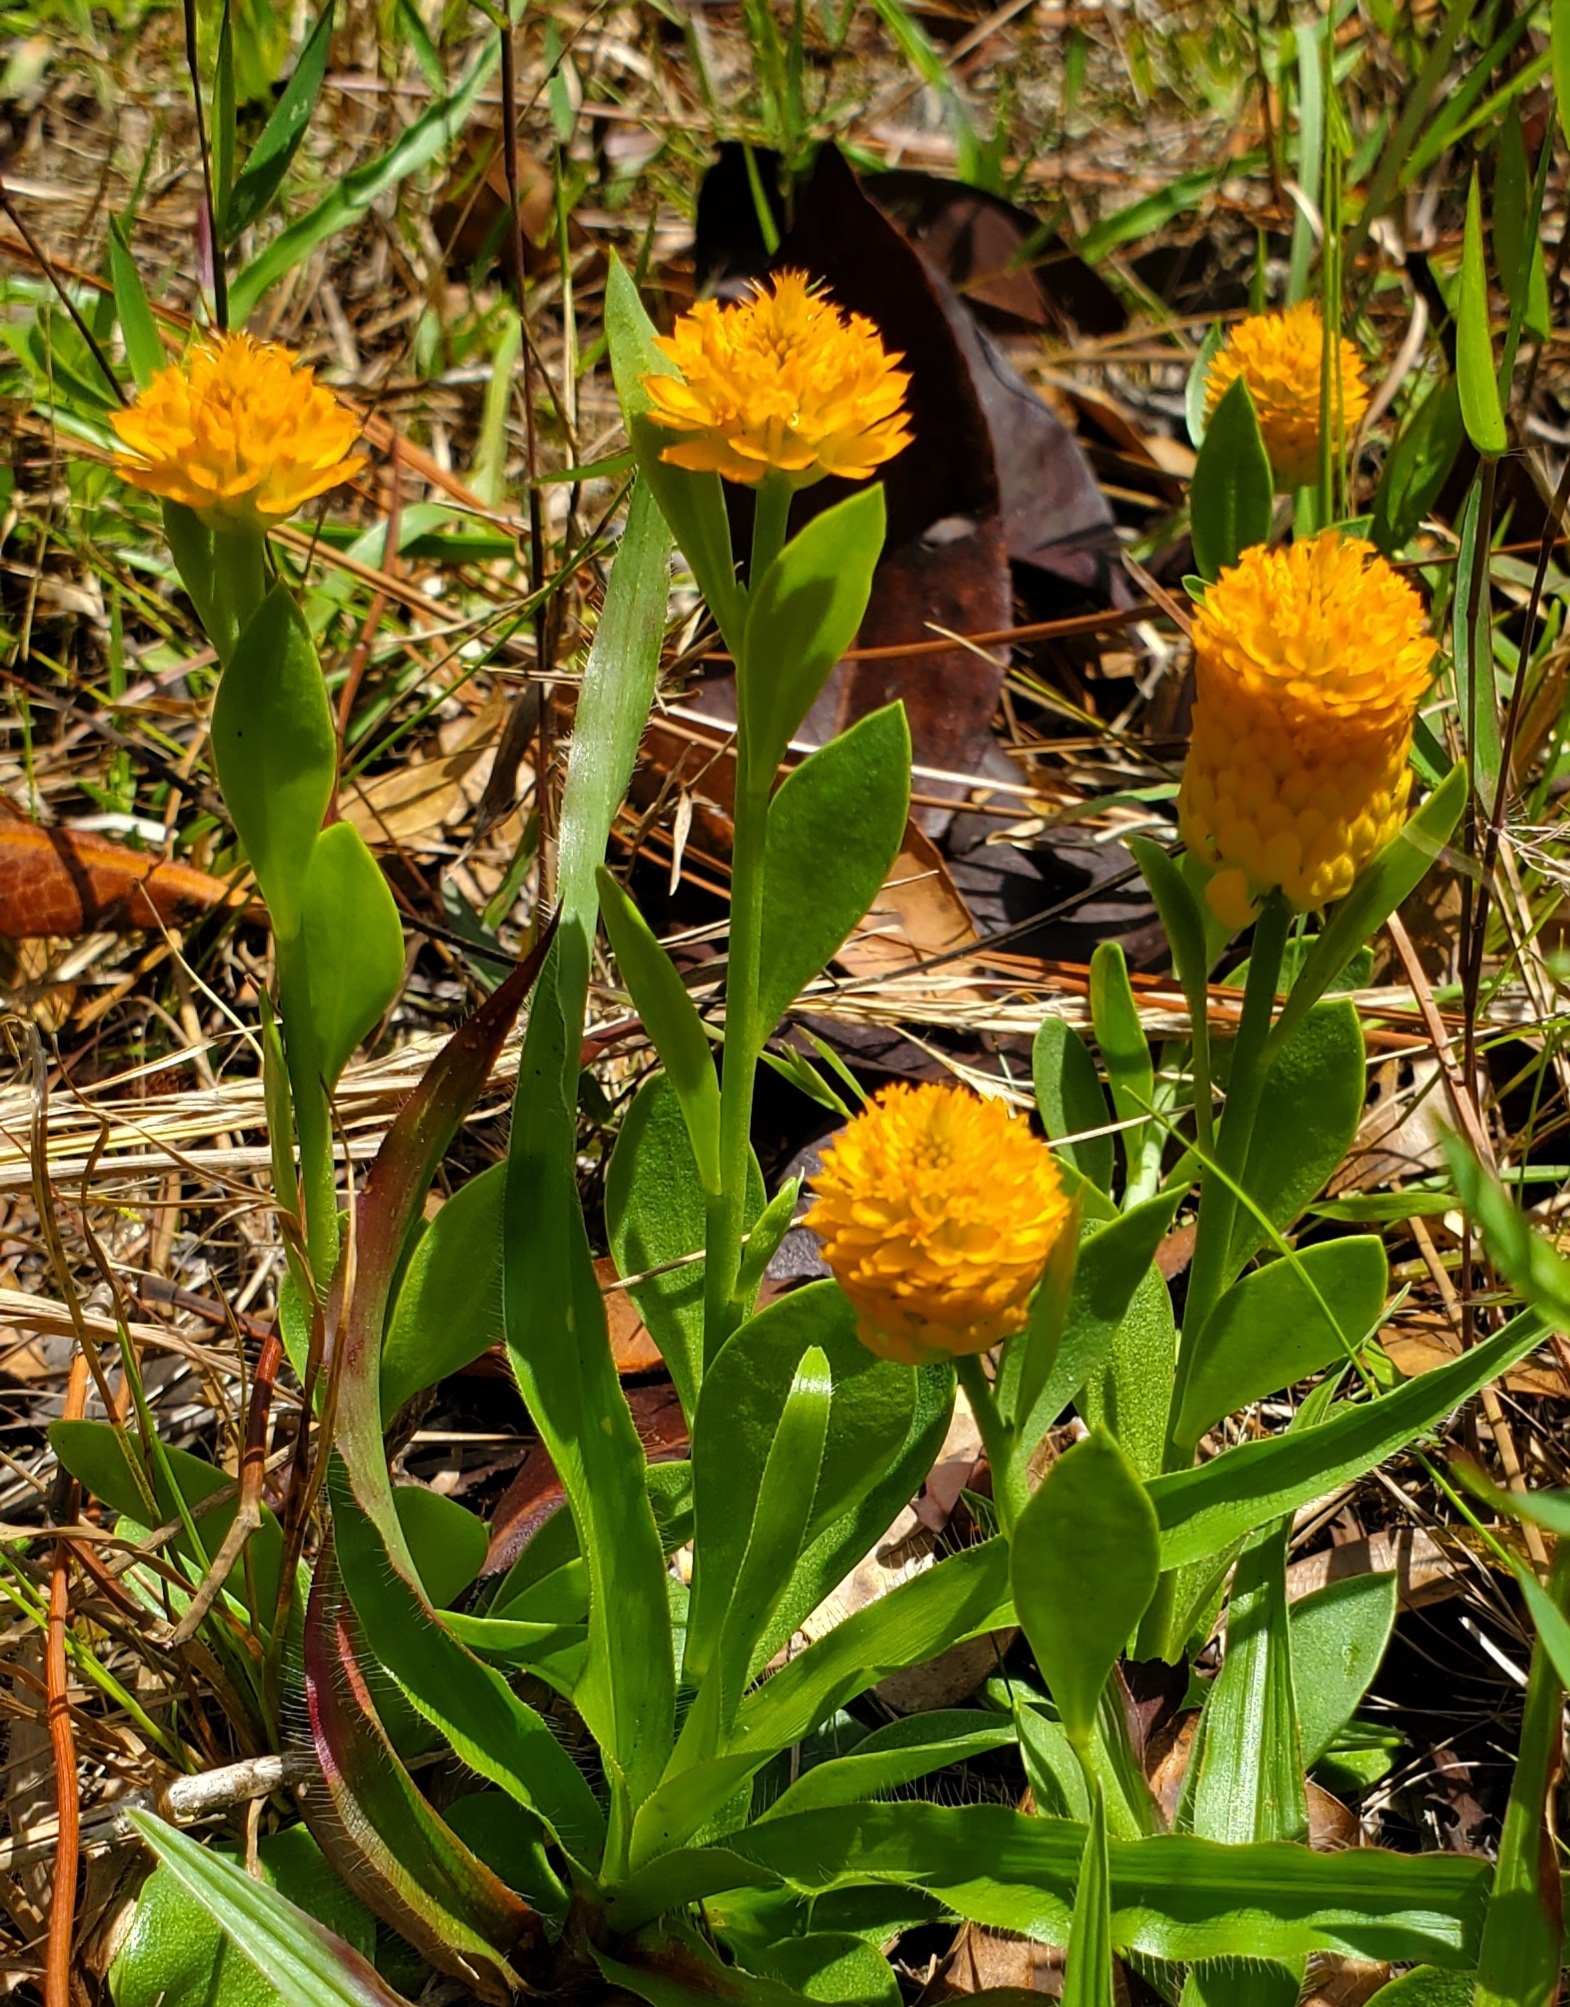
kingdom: Plantae
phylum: Tracheophyta
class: Magnoliopsida
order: Fabales
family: Polygalaceae
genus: Polygala
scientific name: Polygala lutea
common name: Orange milkwort
